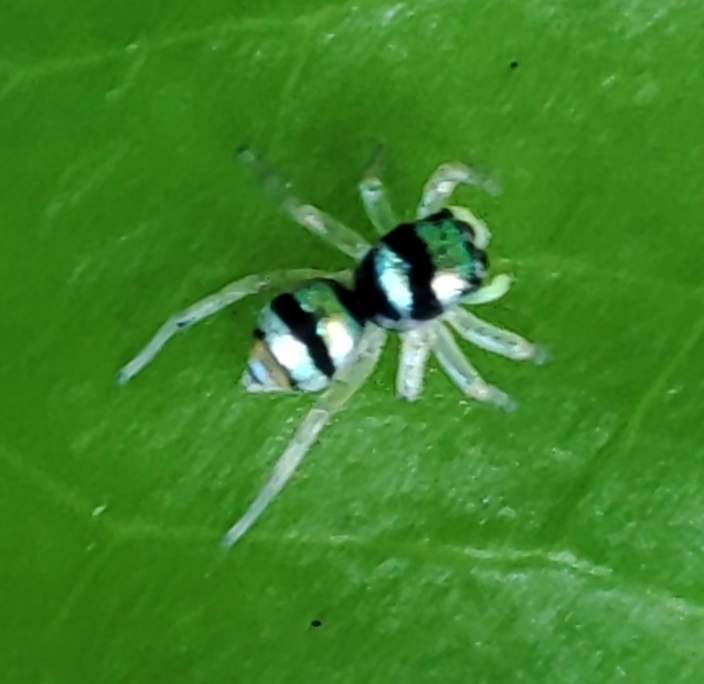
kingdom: Animalia
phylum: Arthropoda
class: Arachnida
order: Araneae
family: Salticidae
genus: Phintella
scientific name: Phintella vittata
